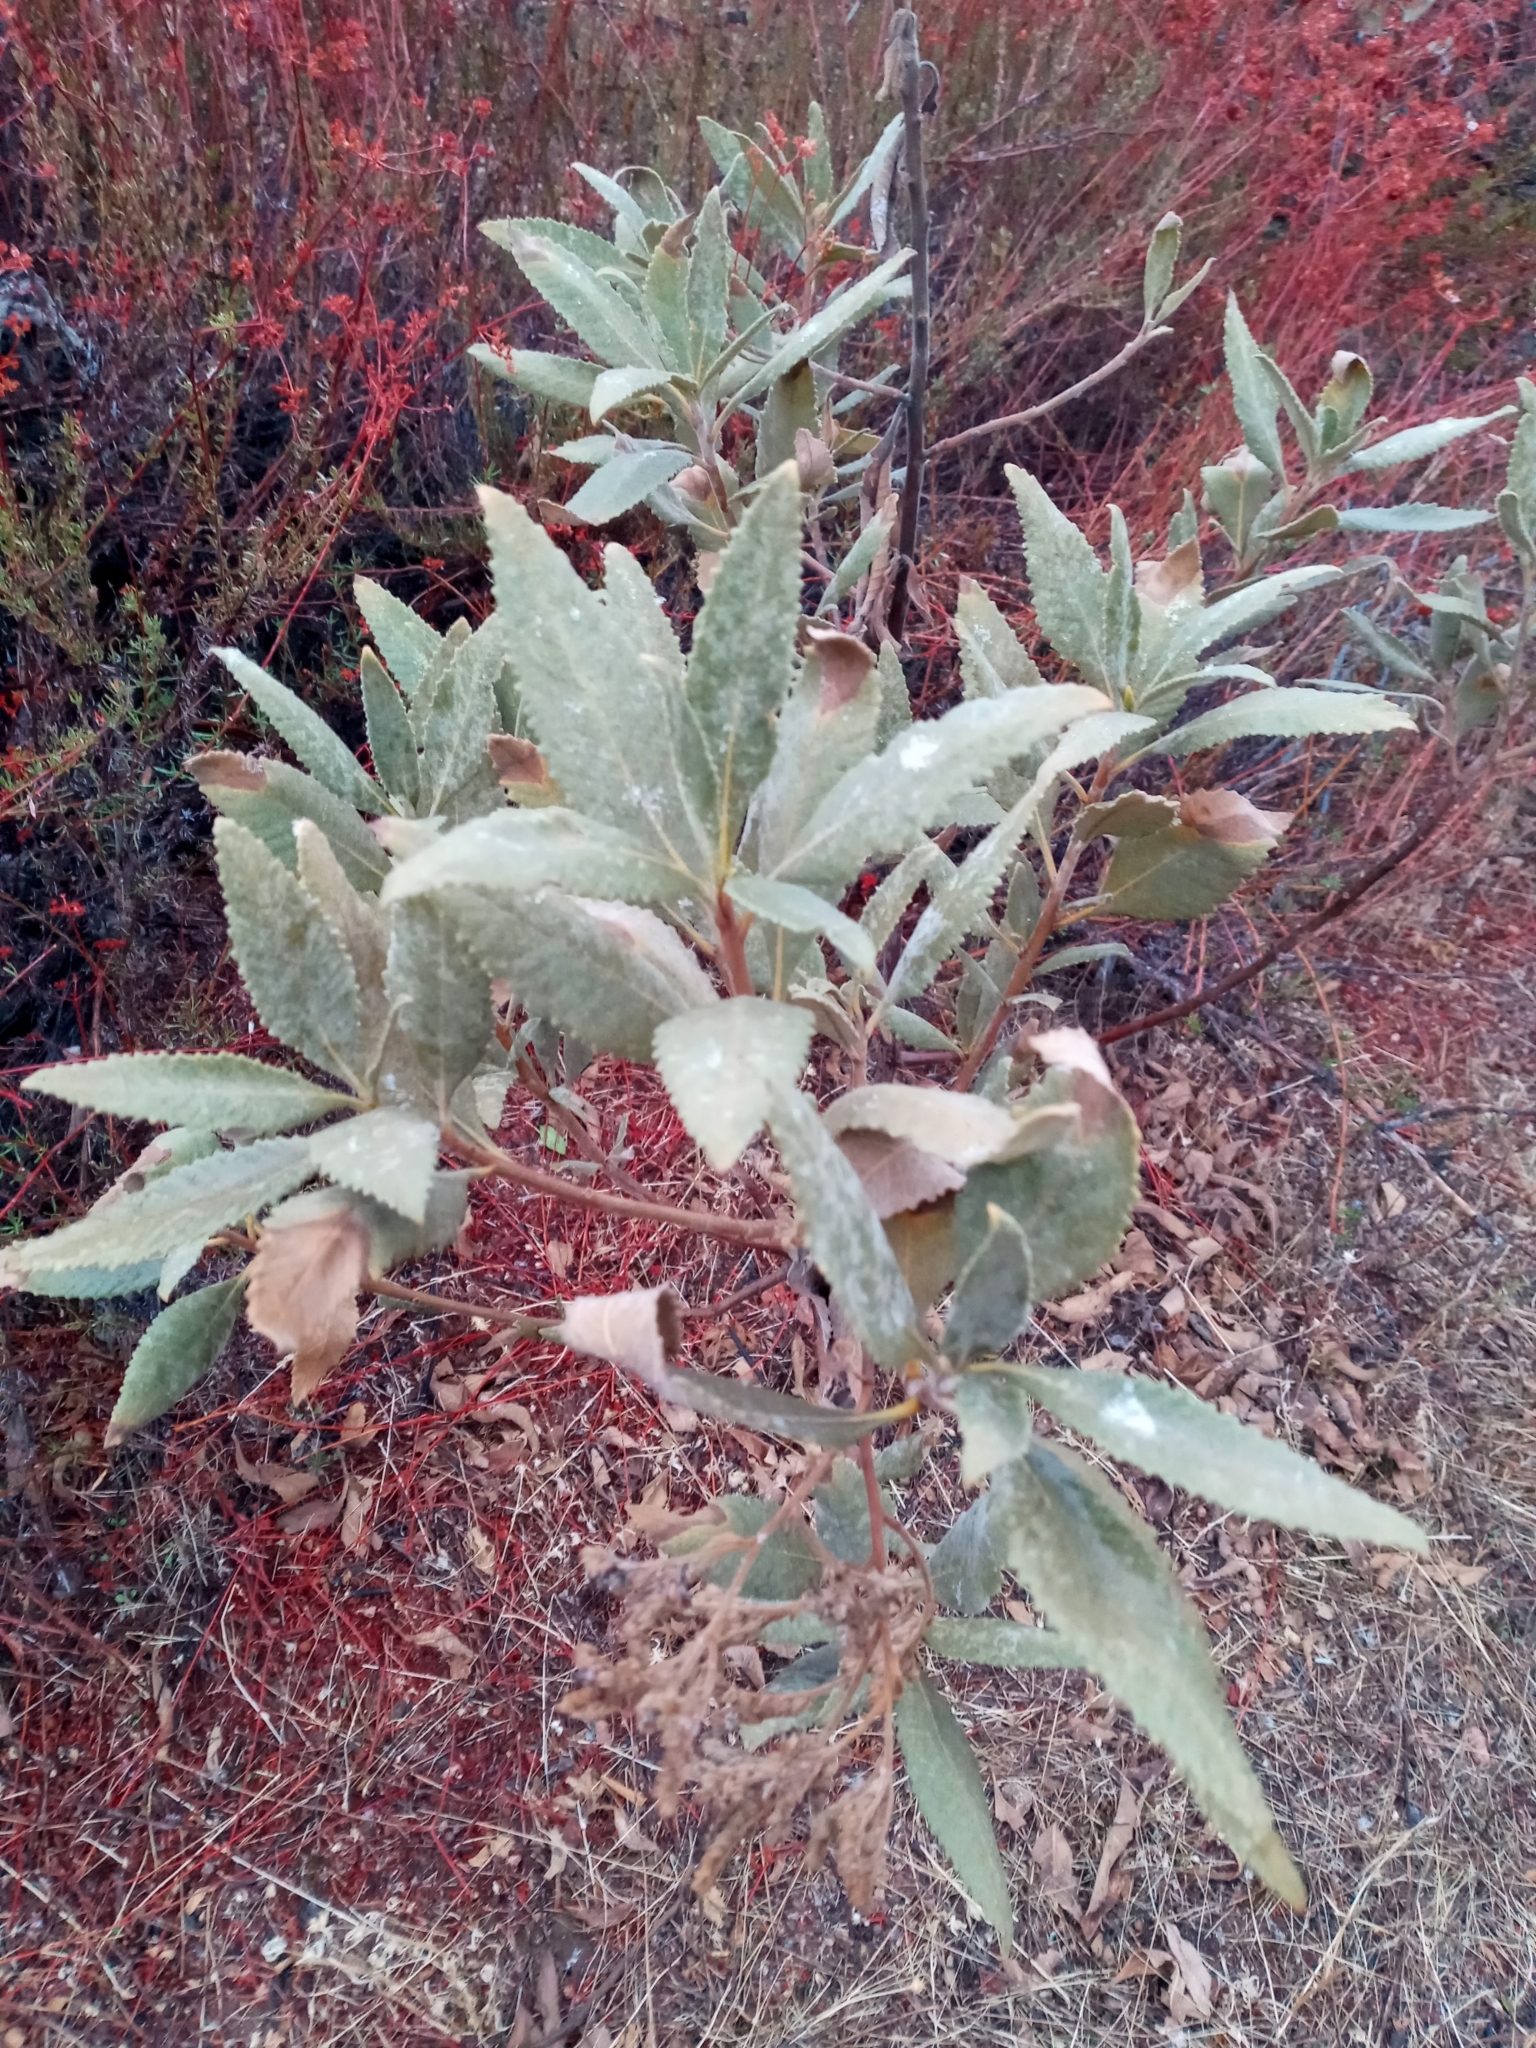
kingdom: Plantae
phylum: Tracheophyta
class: Magnoliopsida
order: Boraginales
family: Namaceae
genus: Eriodictyon
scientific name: Eriodictyon crassifolium
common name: Thick-leaf yerba-santa
